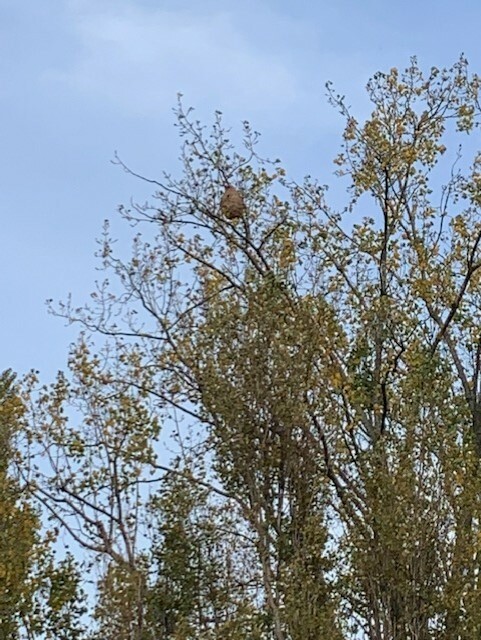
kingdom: Animalia
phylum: Arthropoda
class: Insecta
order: Hymenoptera
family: Vespidae
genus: Vespa
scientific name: Vespa velutina
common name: Asian hornet
